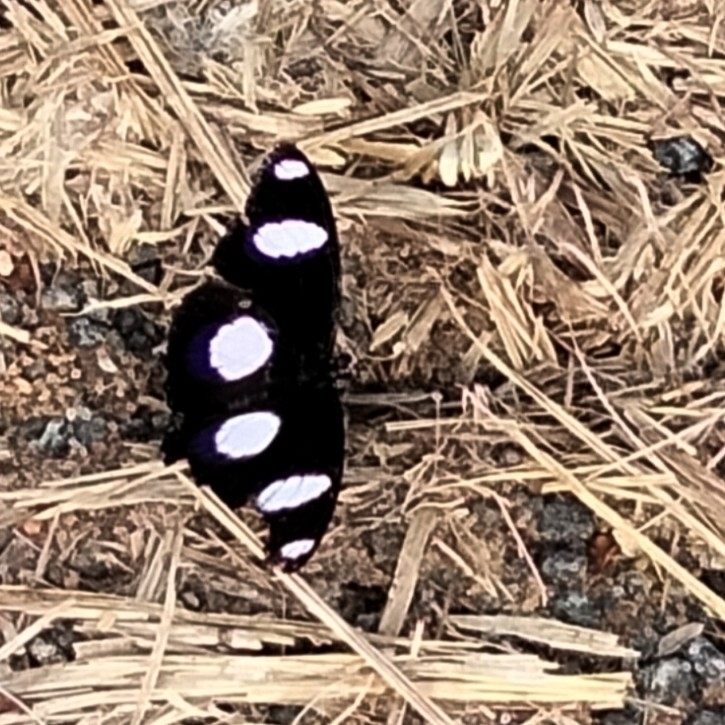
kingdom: Animalia
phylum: Arthropoda
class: Insecta
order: Lepidoptera
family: Nymphalidae
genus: Hypolimnas
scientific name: Hypolimnas misippus
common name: False plain tiger
